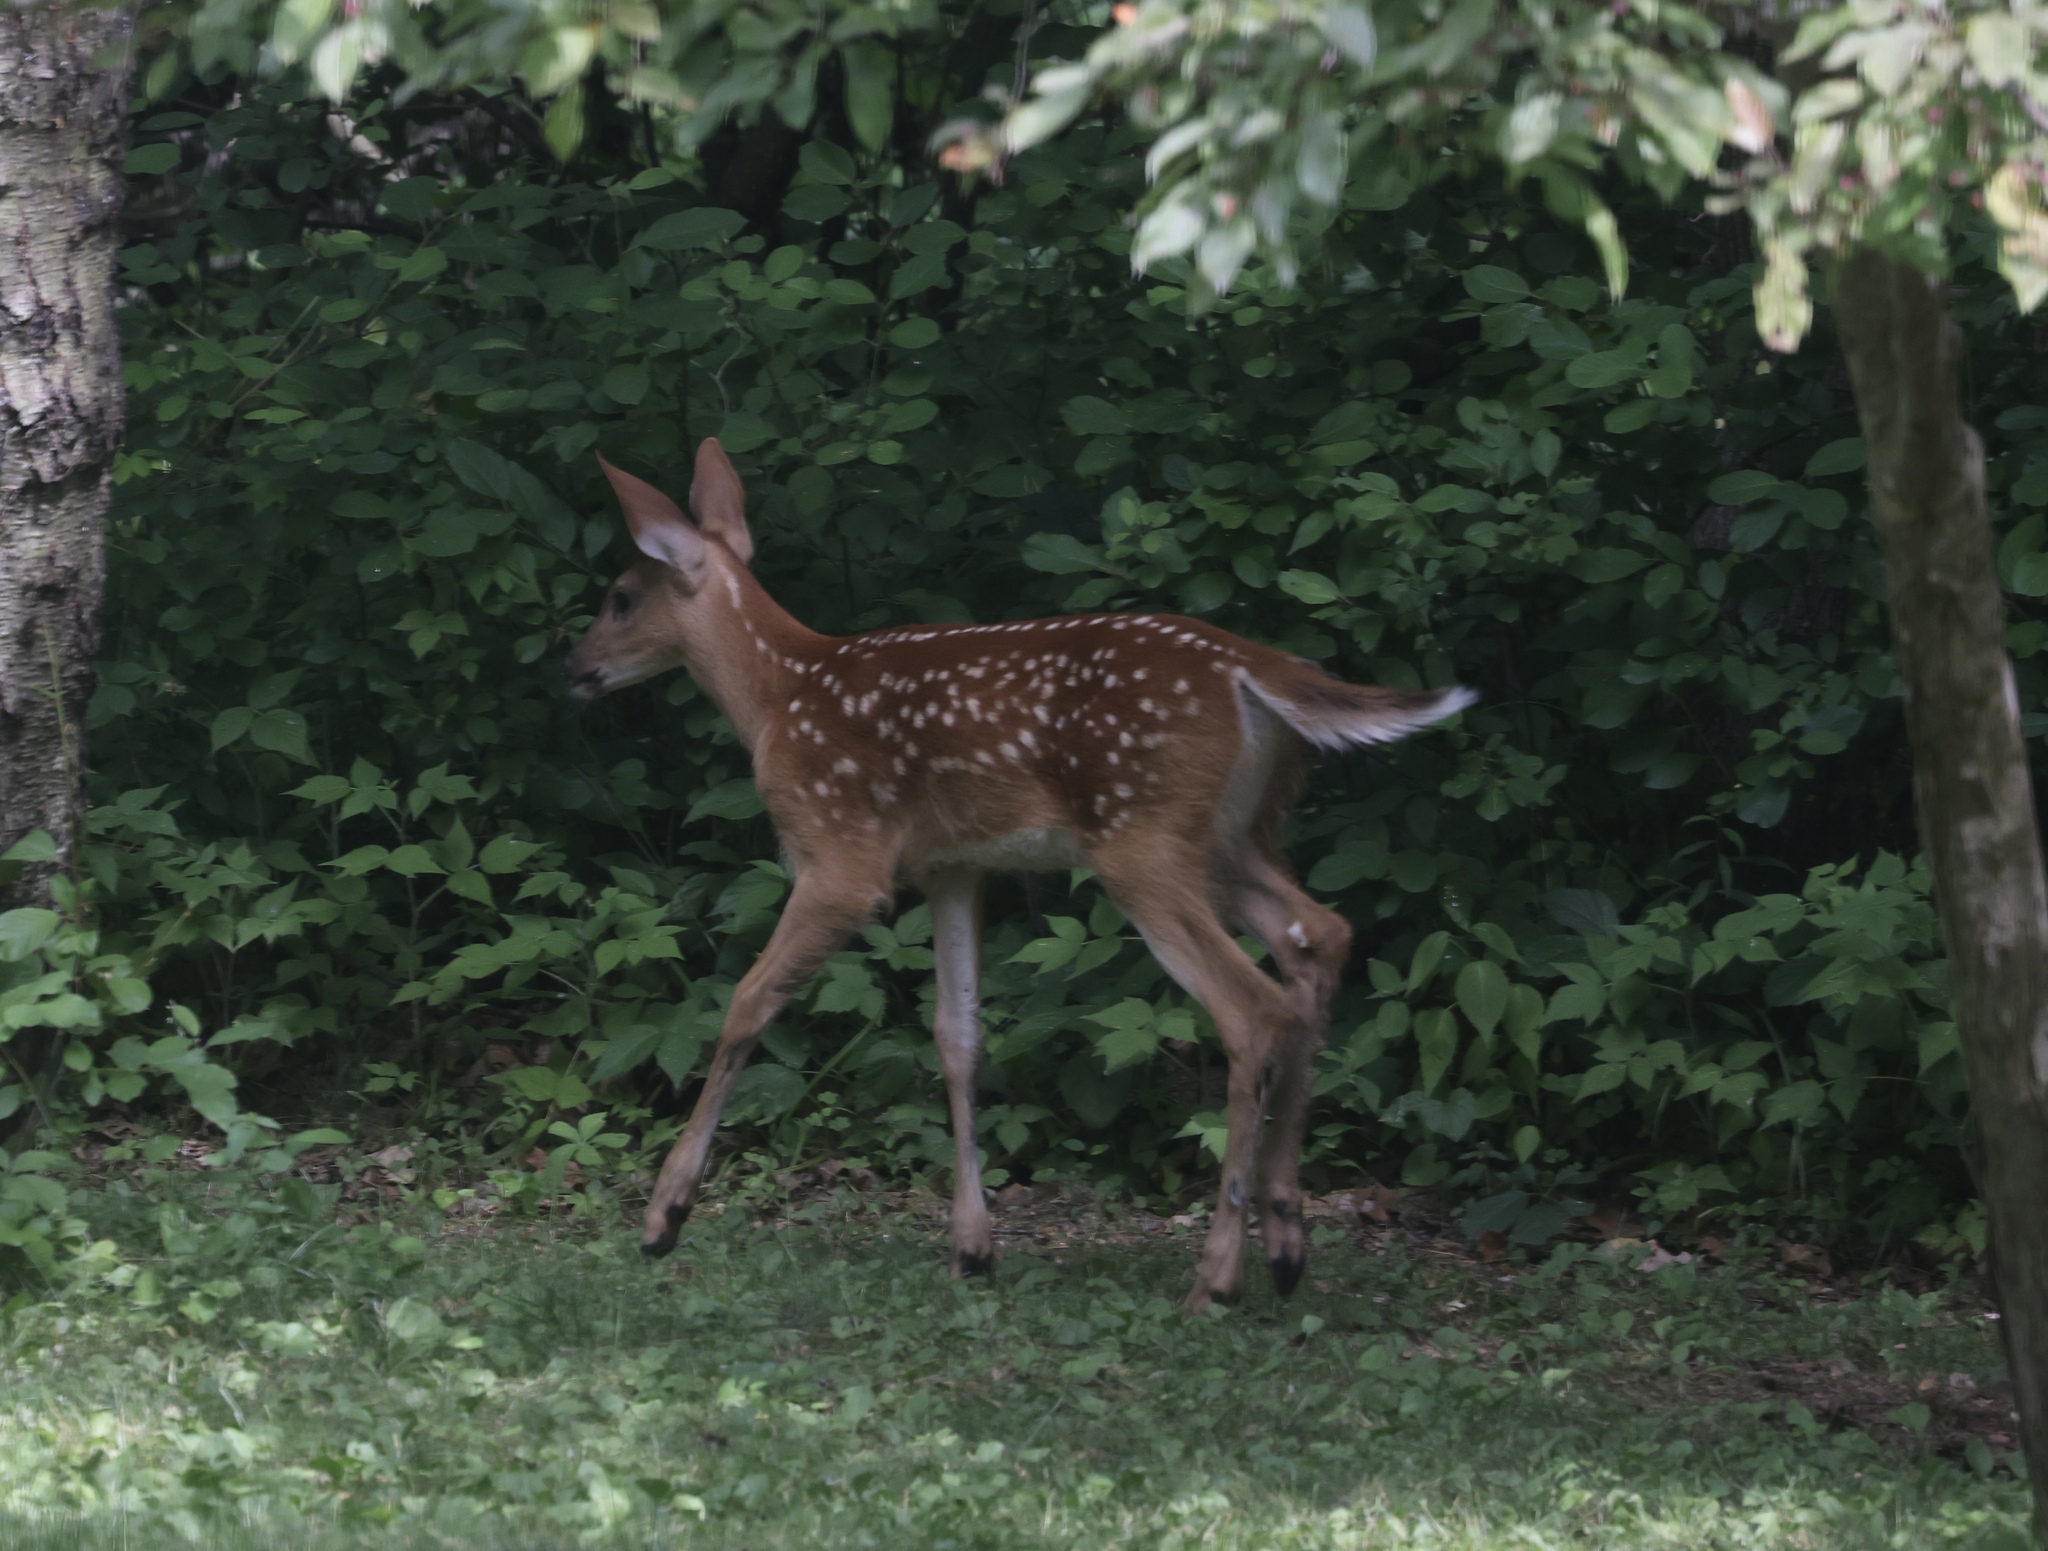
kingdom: Animalia
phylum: Chordata
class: Mammalia
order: Artiodactyla
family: Cervidae
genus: Odocoileus
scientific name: Odocoileus virginianus
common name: White-tailed deer
